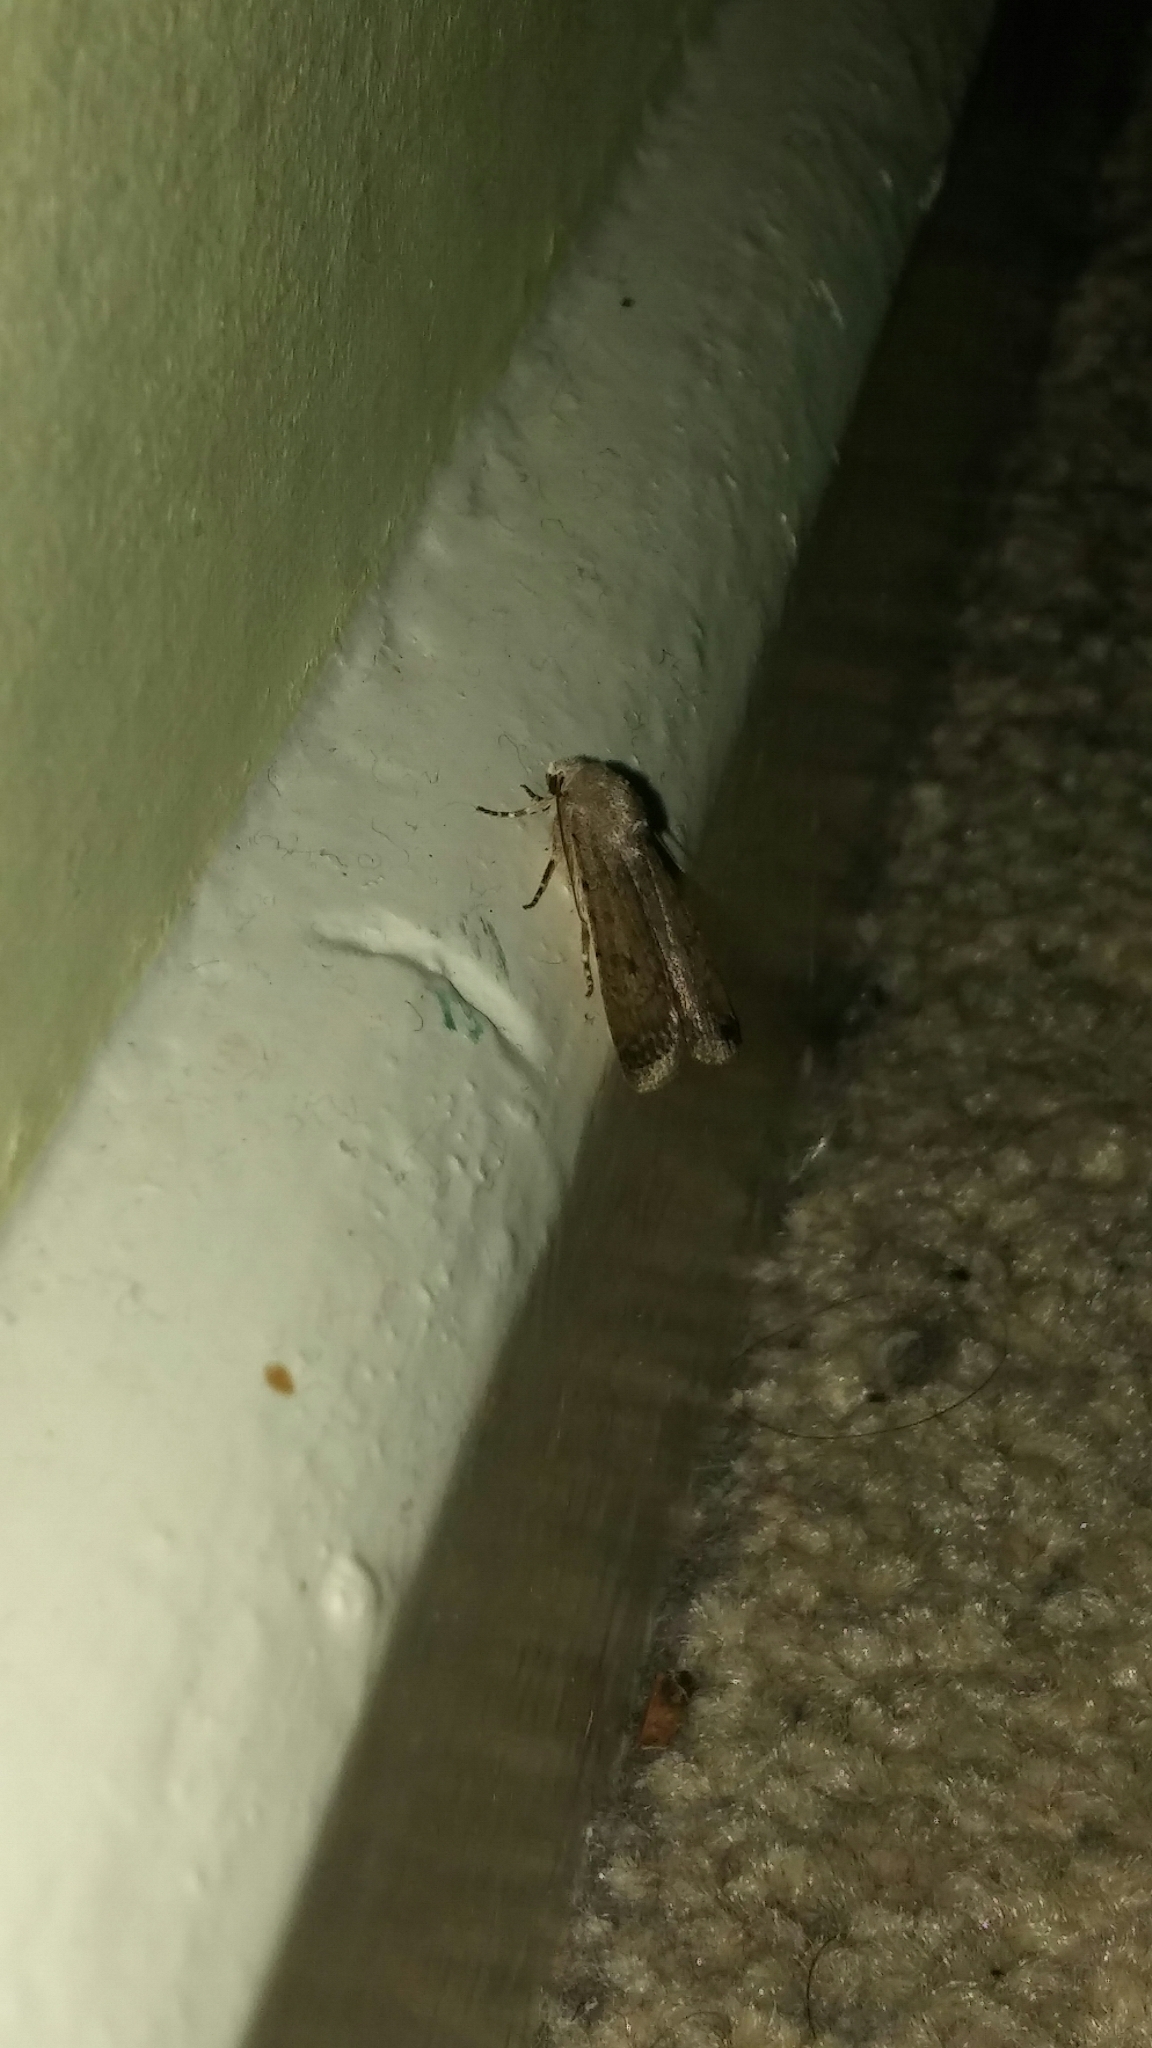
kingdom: Animalia
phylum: Arthropoda
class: Insecta
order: Lepidoptera
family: Noctuidae
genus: Caradrina
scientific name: Caradrina clavipalpis
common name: Pale mottled willow
